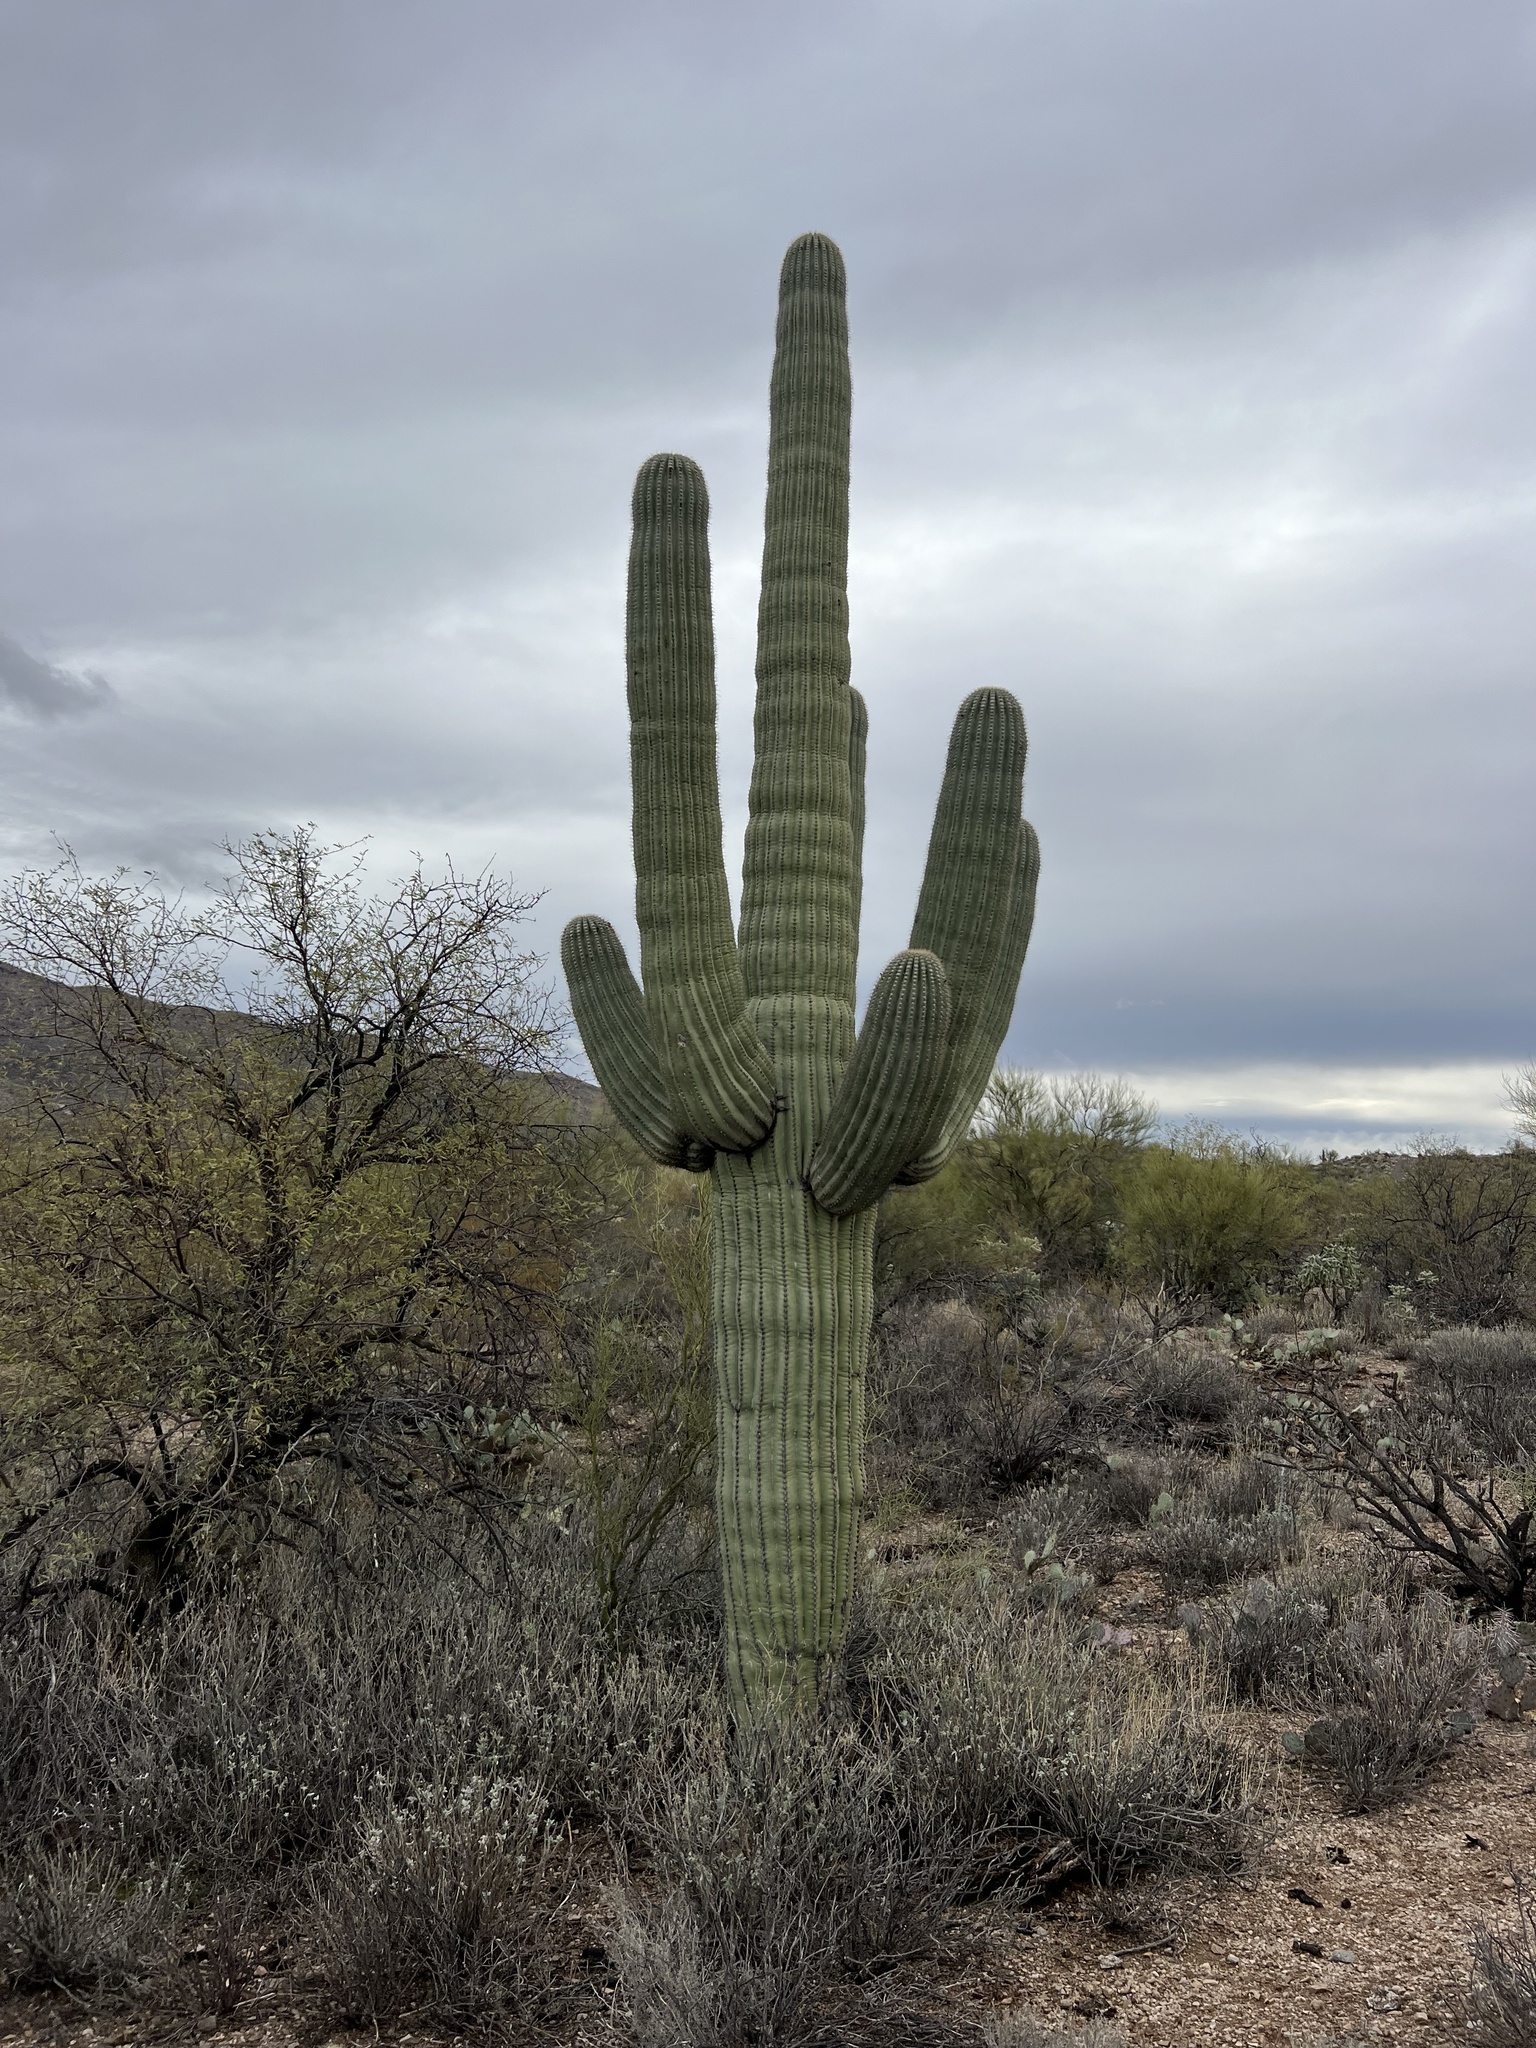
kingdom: Plantae
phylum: Tracheophyta
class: Magnoliopsida
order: Caryophyllales
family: Cactaceae
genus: Carnegiea
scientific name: Carnegiea gigantea
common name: Saguaro
